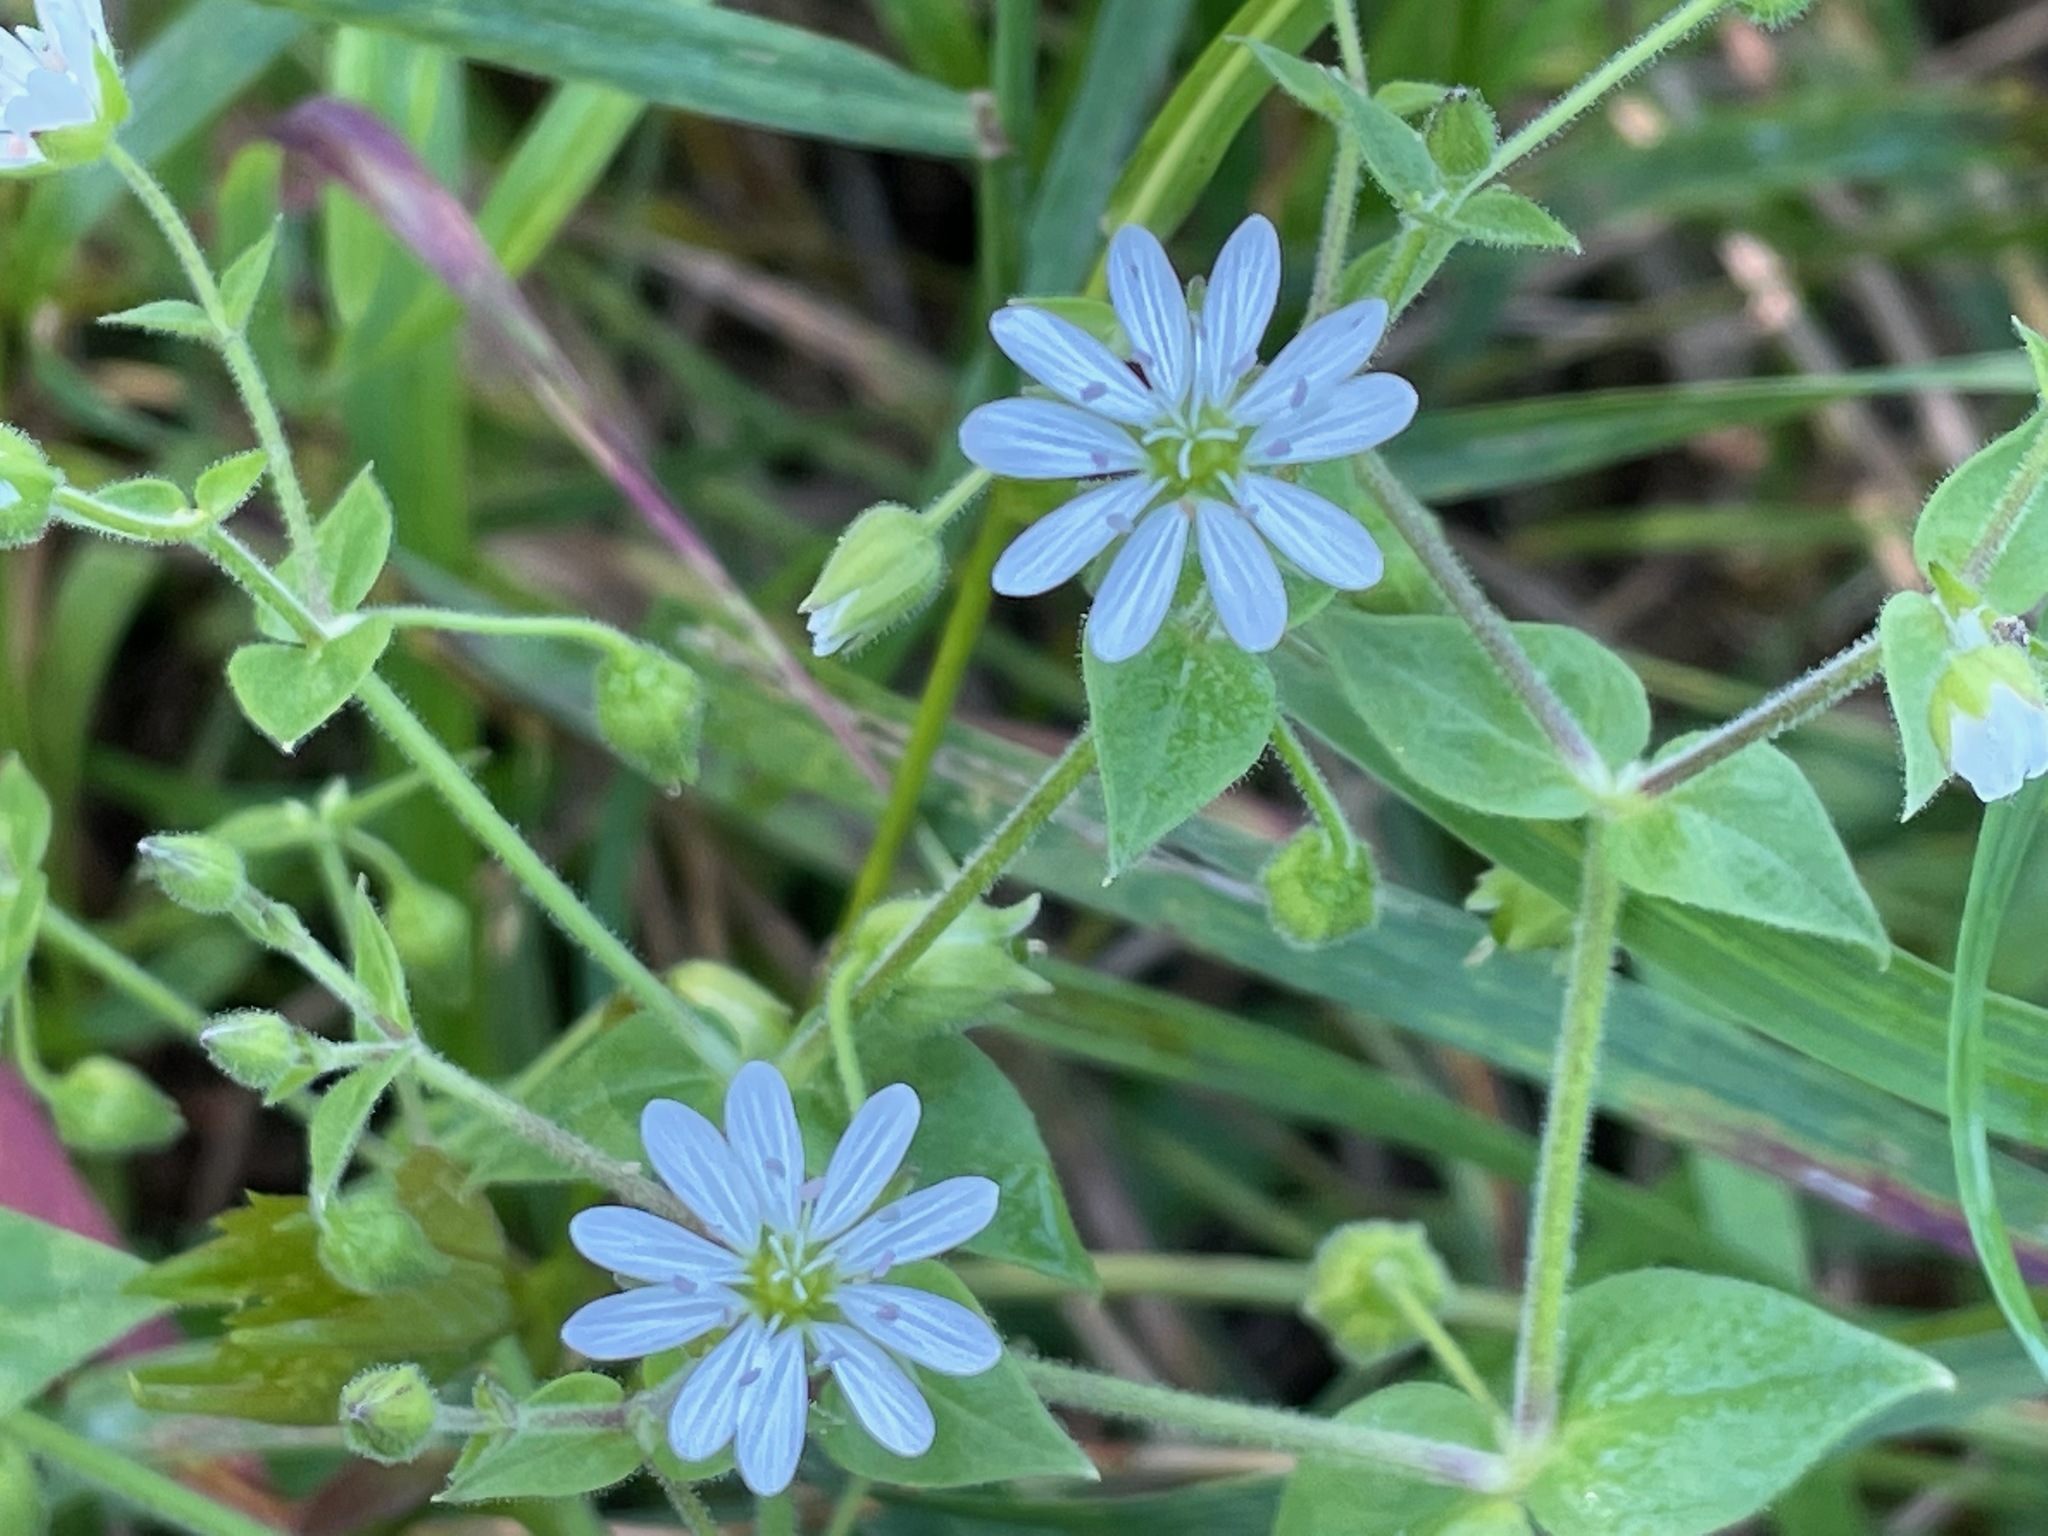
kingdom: Plantae
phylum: Tracheophyta
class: Magnoliopsida
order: Caryophyllales
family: Caryophyllaceae
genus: Stellaria
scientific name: Stellaria aquatica
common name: Water chickweed
